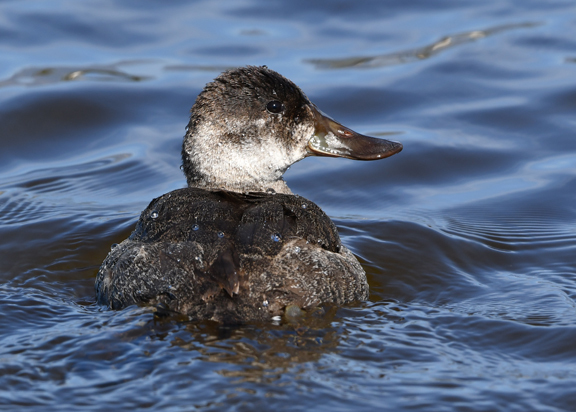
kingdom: Animalia
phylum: Chordata
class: Aves
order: Anseriformes
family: Anatidae
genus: Oxyura
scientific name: Oxyura jamaicensis
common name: Ruddy duck
